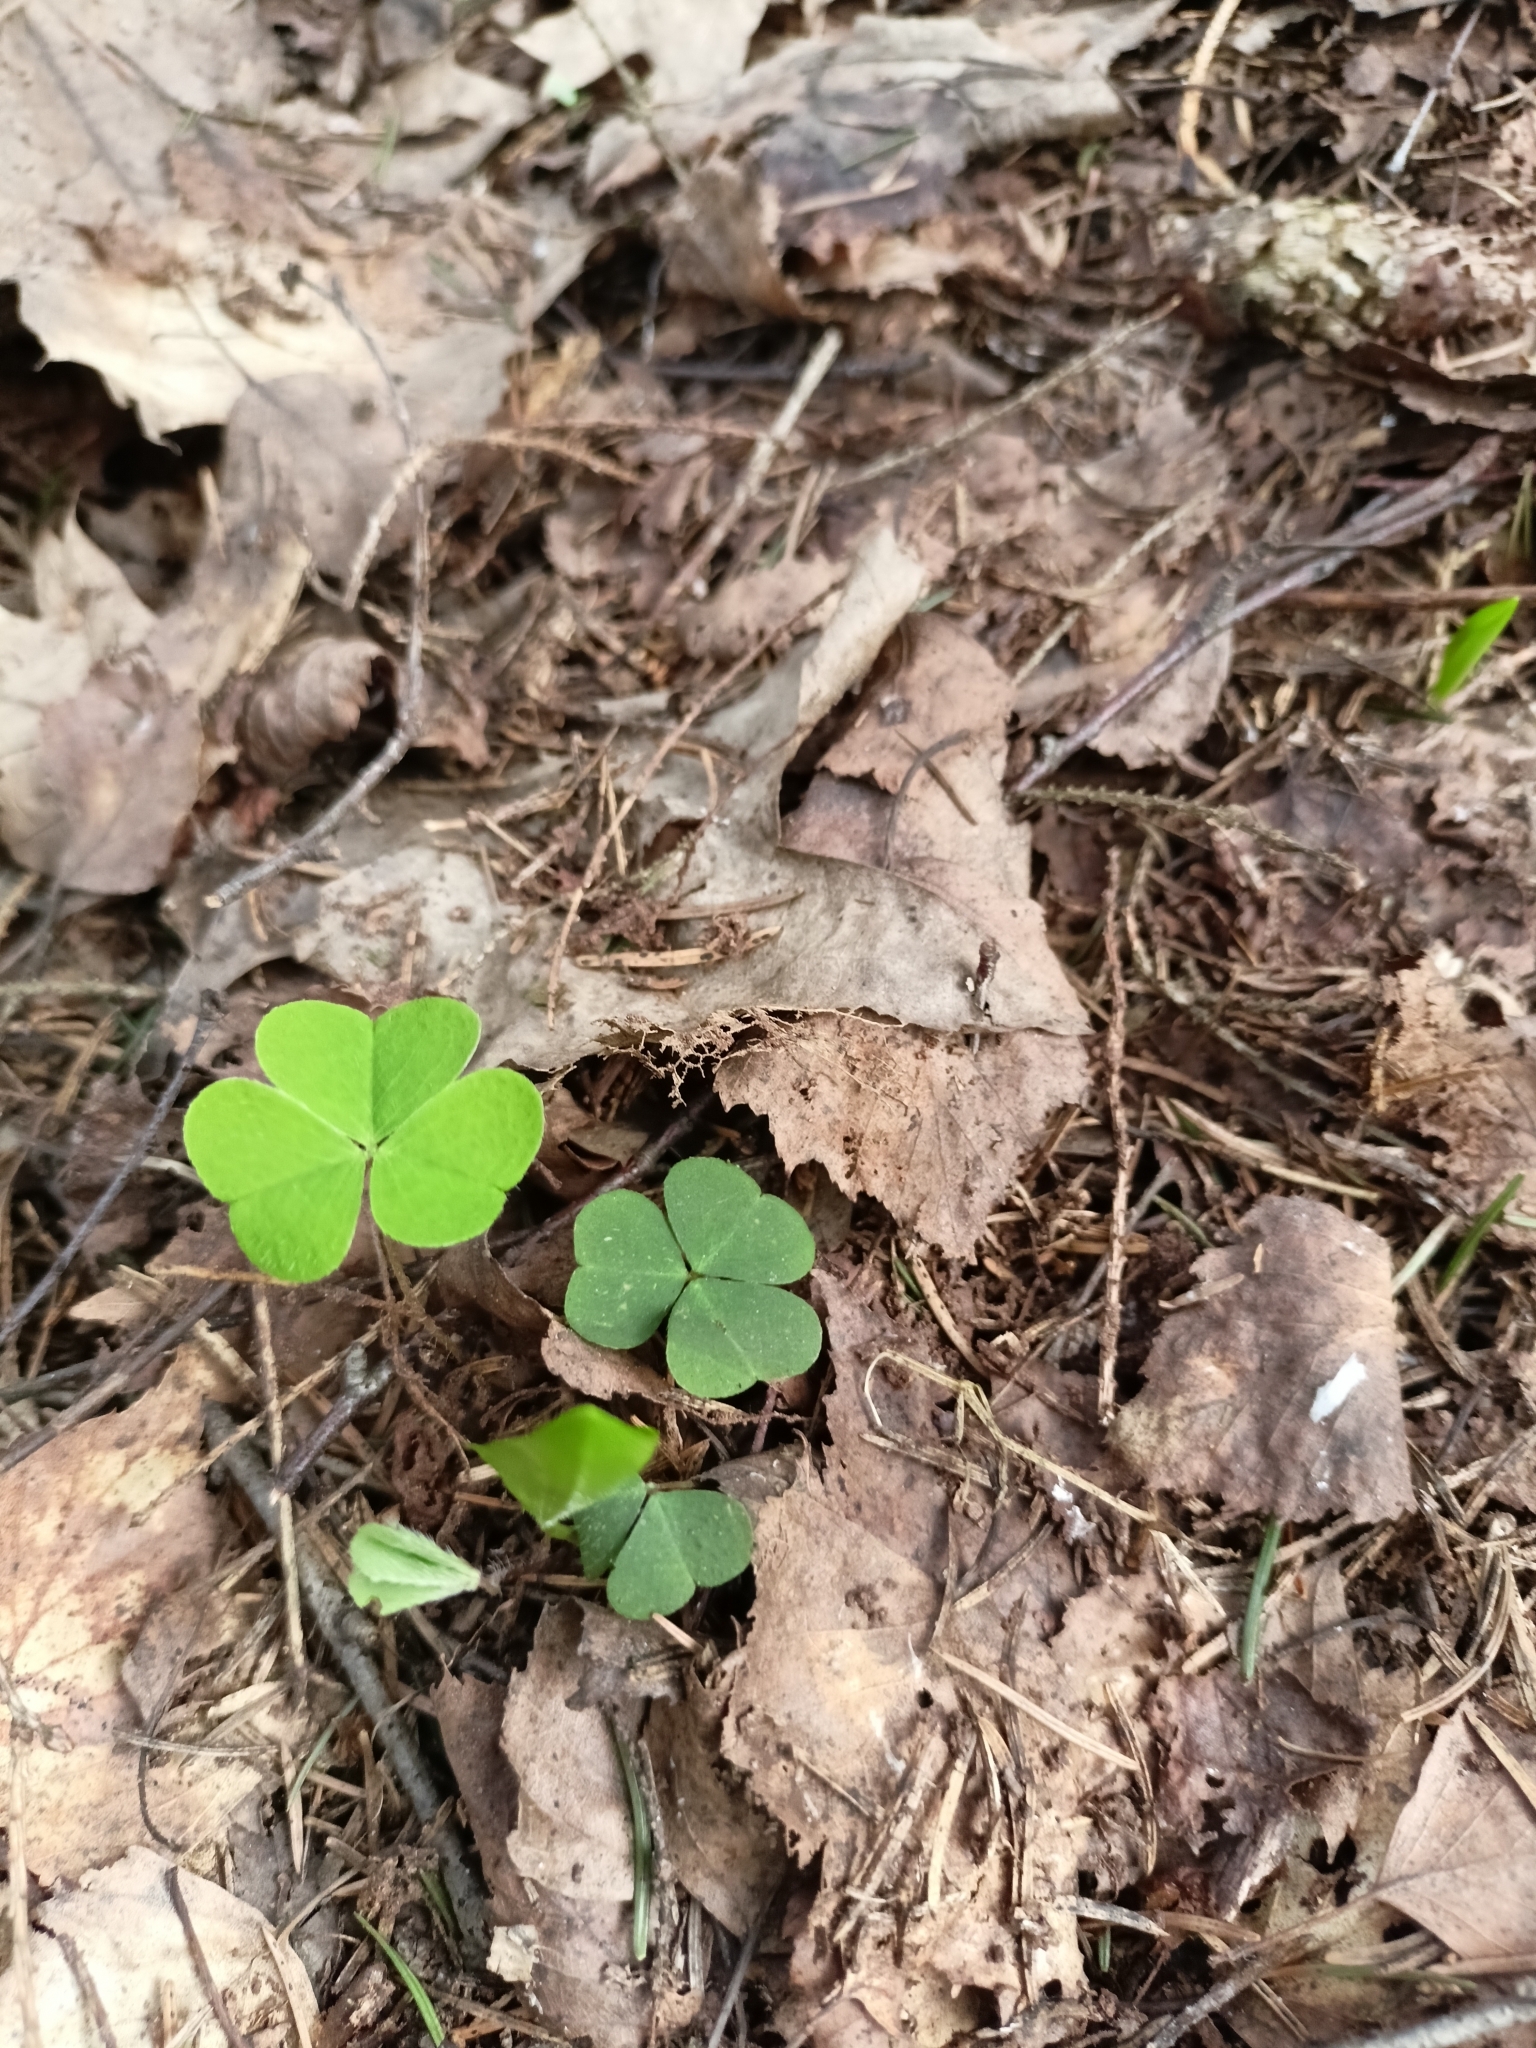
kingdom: Plantae
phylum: Tracheophyta
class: Magnoliopsida
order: Oxalidales
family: Oxalidaceae
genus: Oxalis
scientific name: Oxalis acetosella
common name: Wood-sorrel
